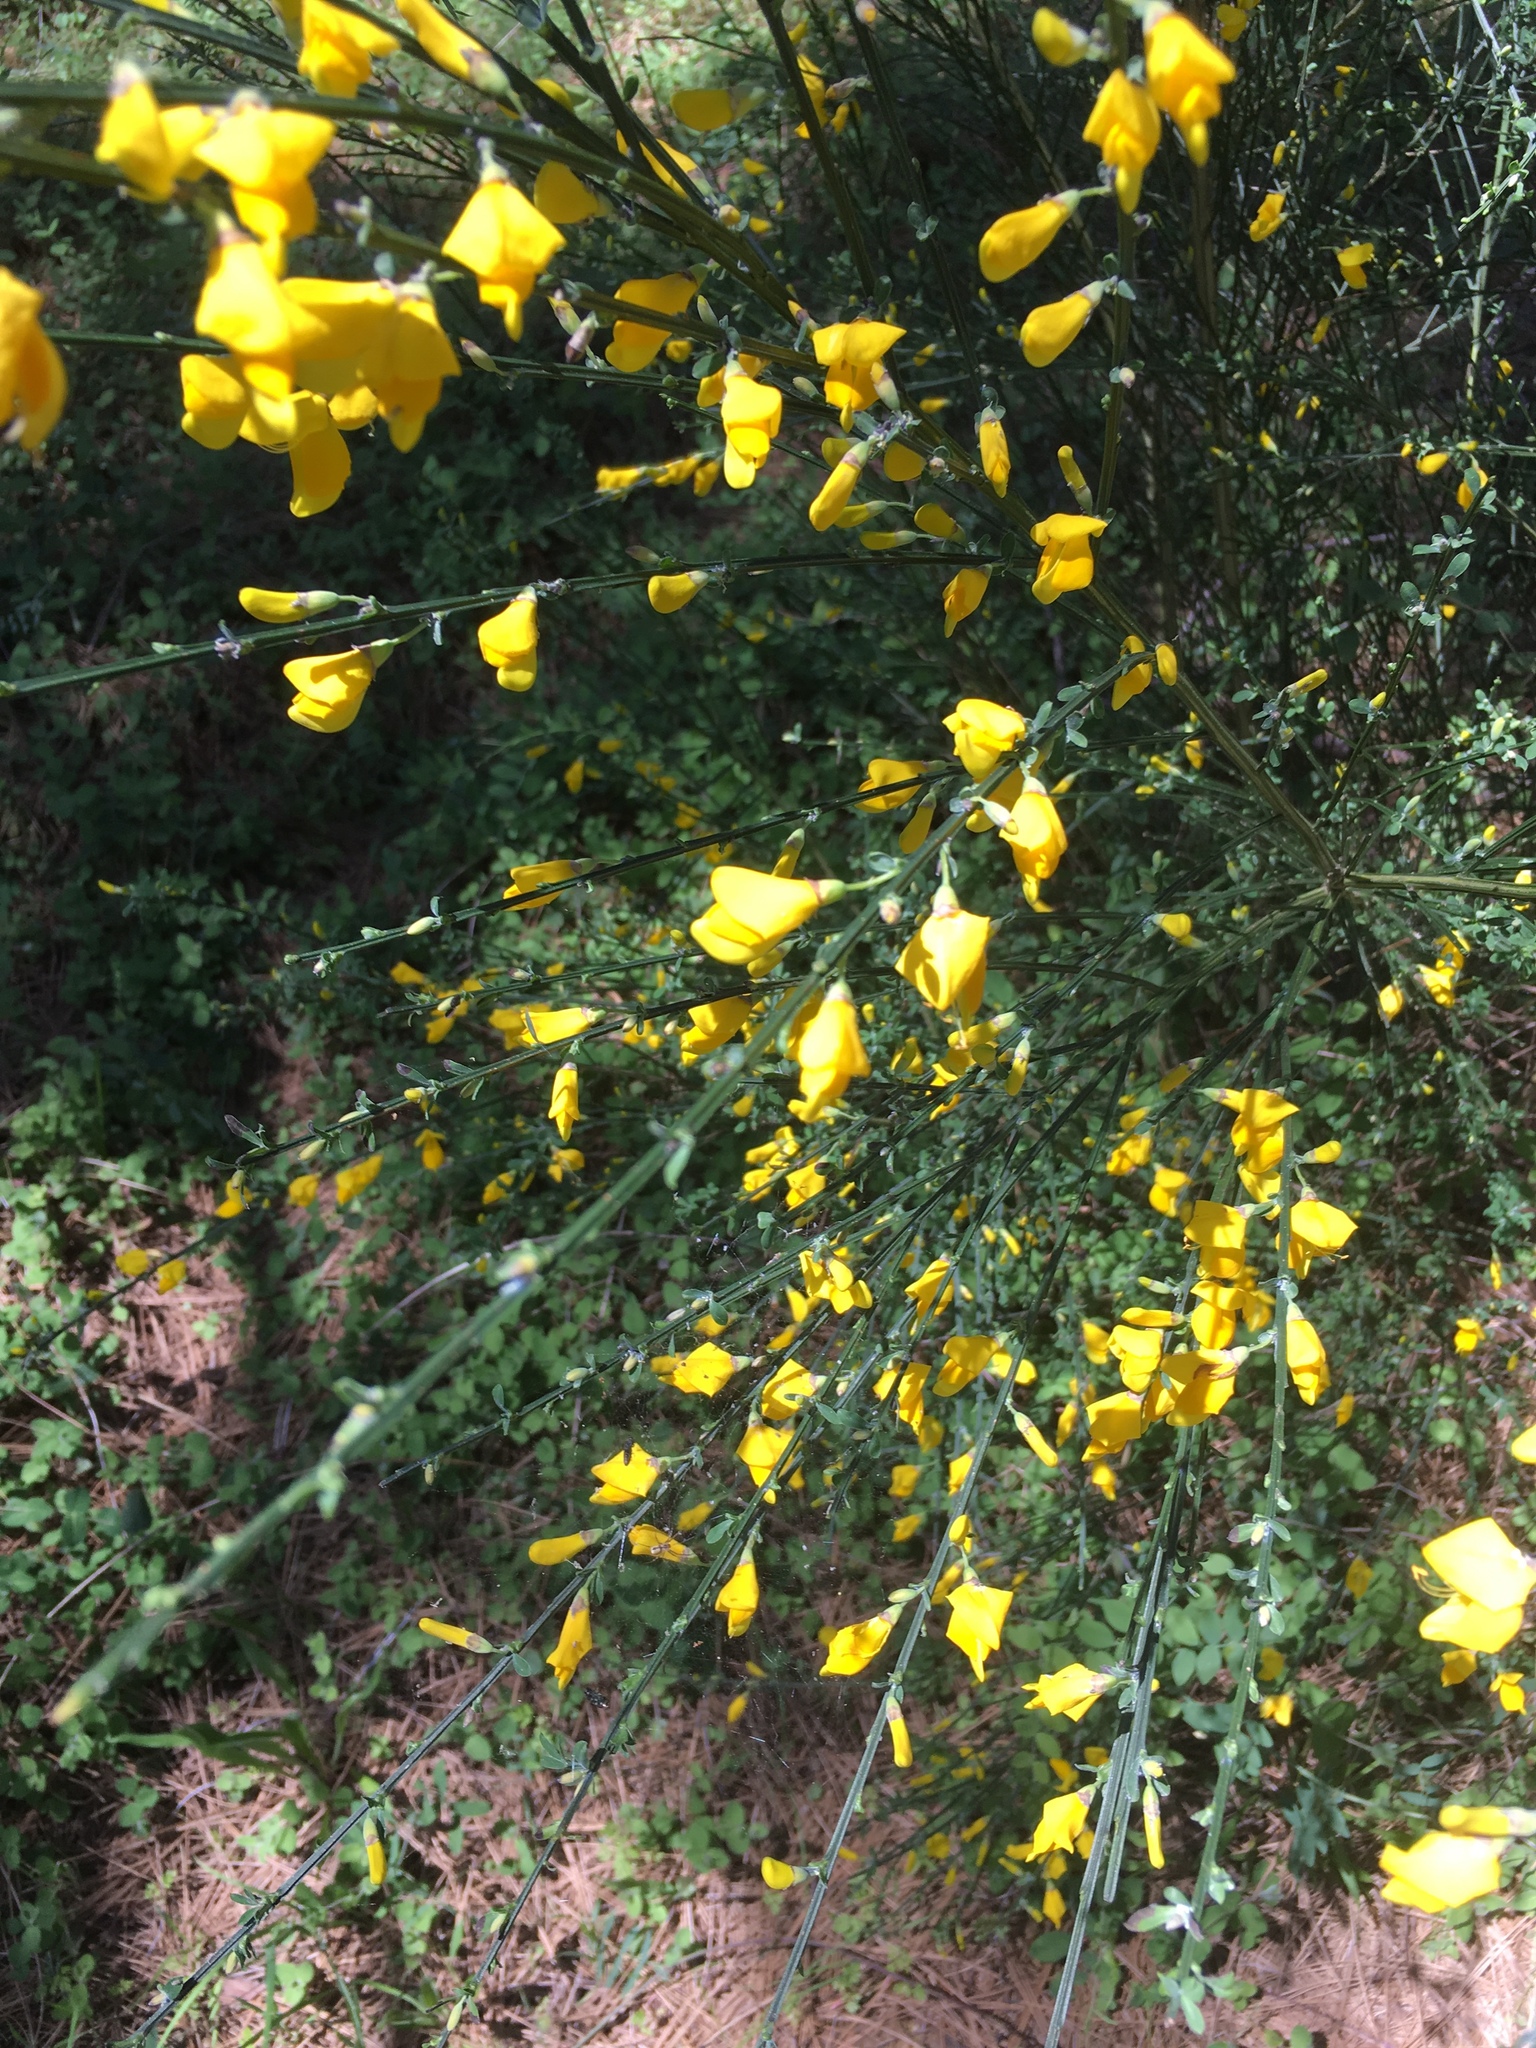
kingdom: Plantae
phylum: Tracheophyta
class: Magnoliopsida
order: Fabales
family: Fabaceae
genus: Cytisus
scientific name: Cytisus scoparius
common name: Scotch broom
